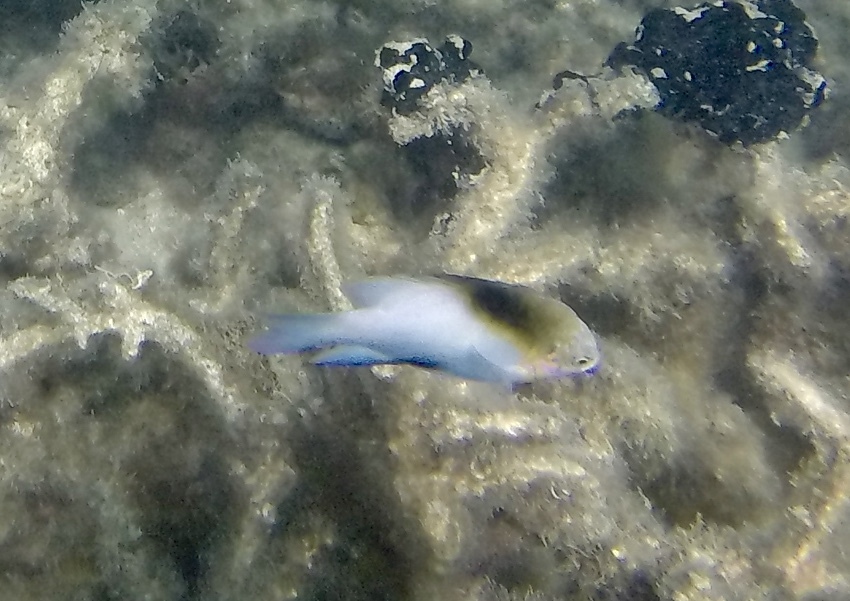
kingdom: Animalia
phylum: Chordata
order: Perciformes
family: Pomacentridae
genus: Dischistodus
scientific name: Dischistodus melanotus
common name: Black-vent damsel
